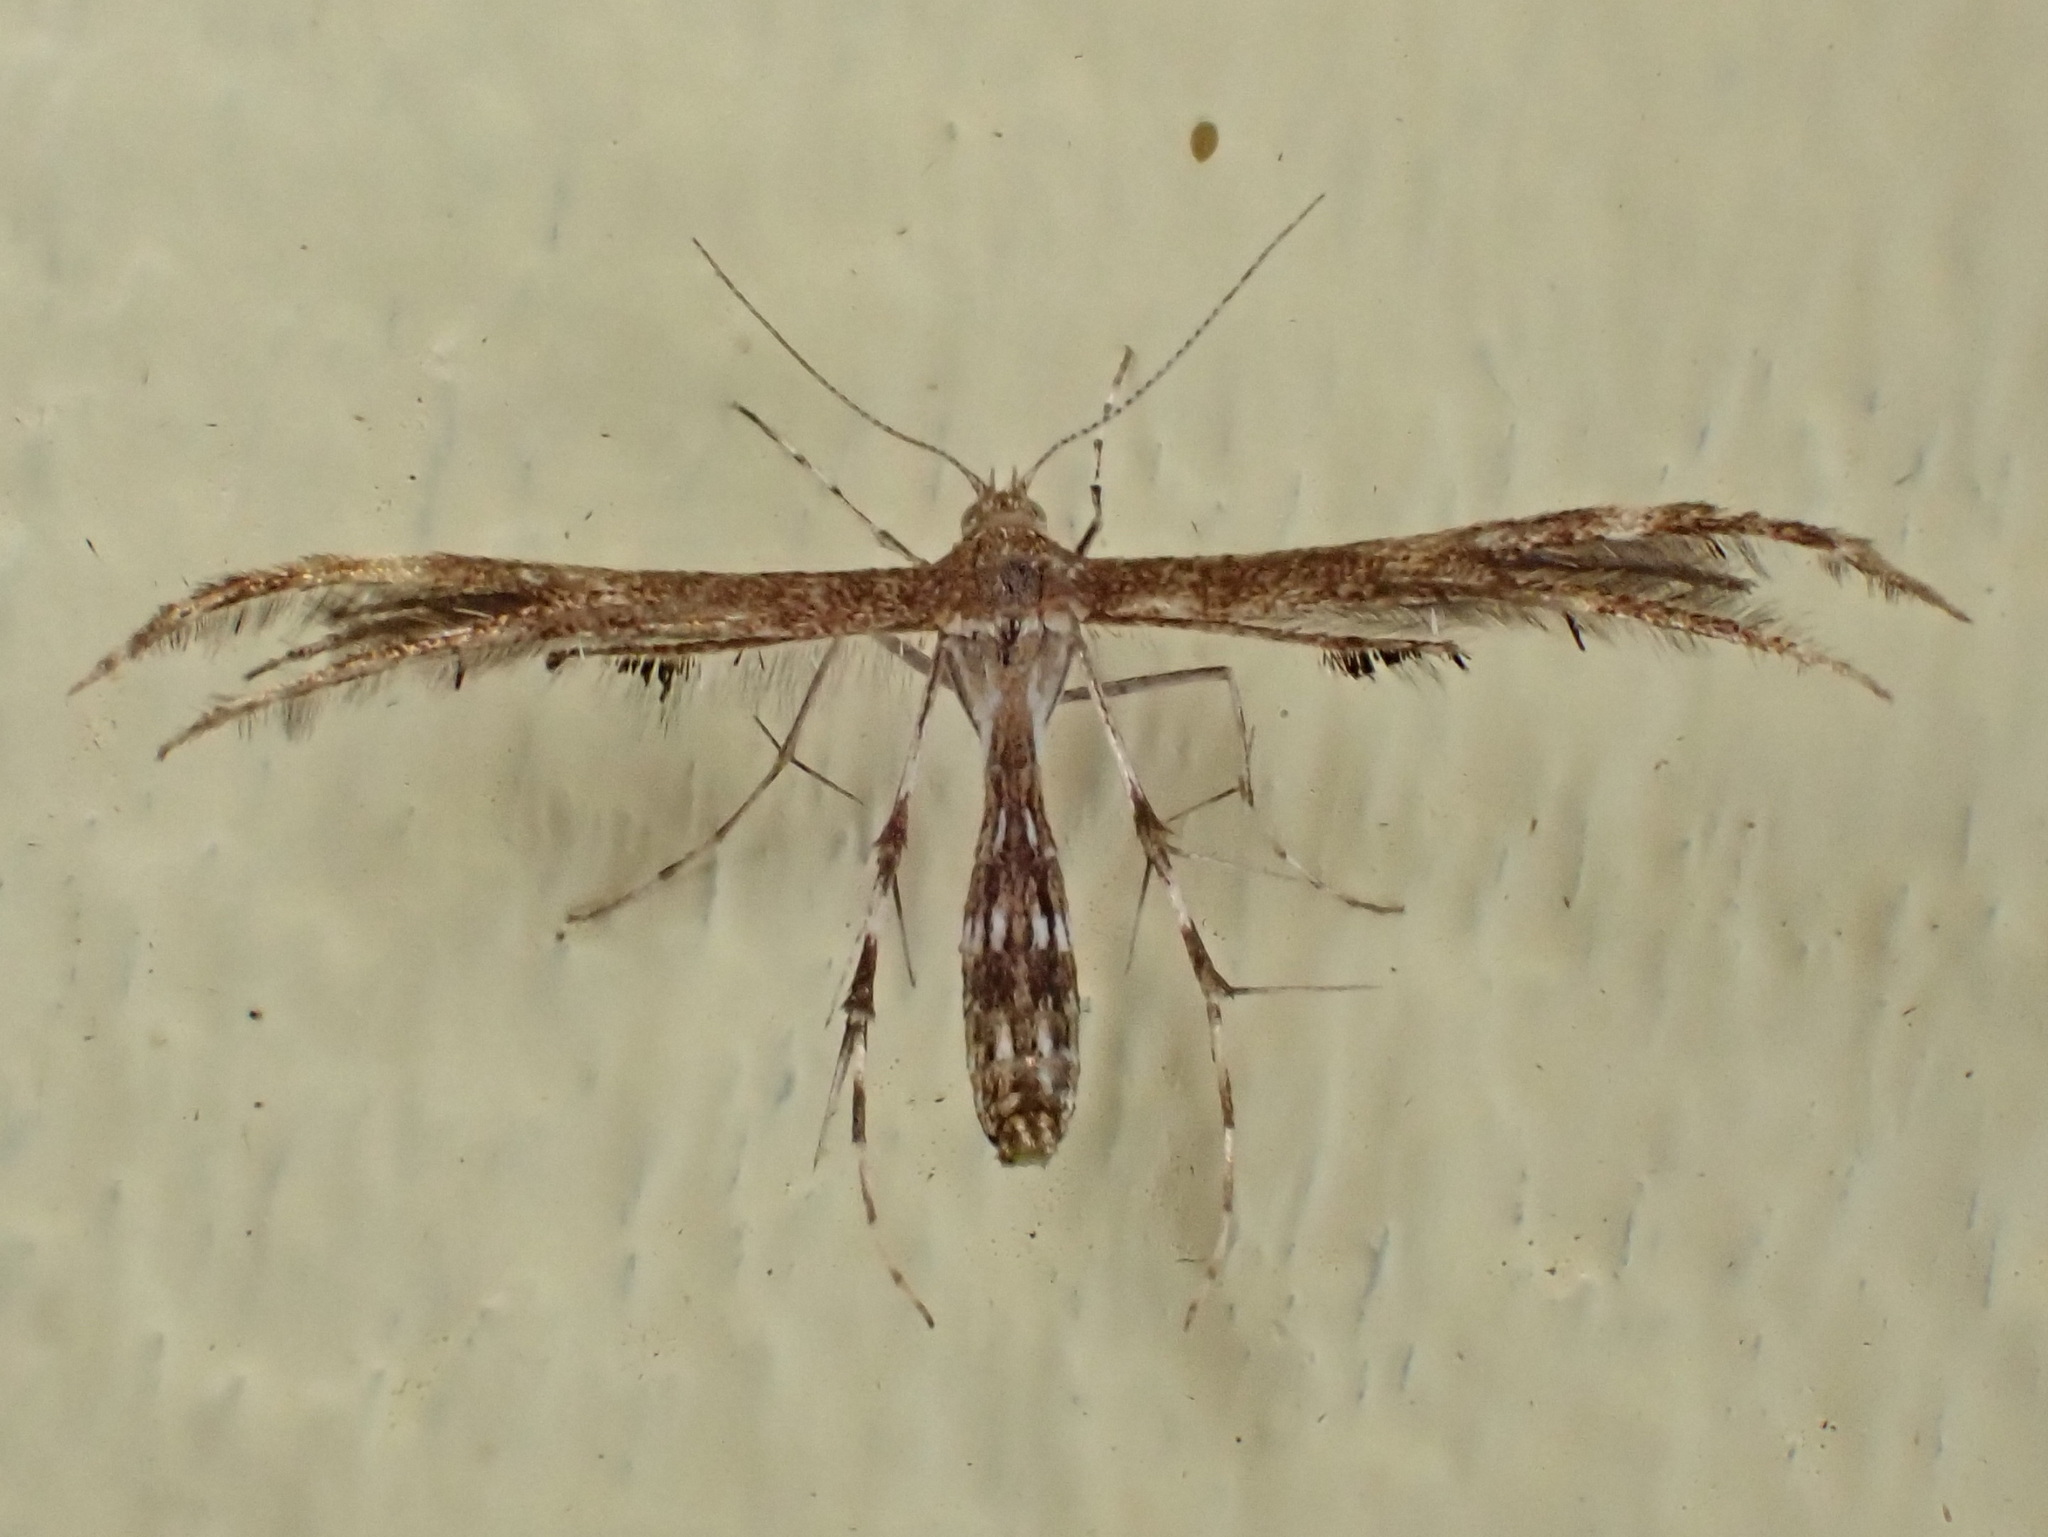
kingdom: Animalia
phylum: Arthropoda
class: Insecta
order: Lepidoptera
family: Pterophoridae
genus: Dejongia
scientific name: Dejongia lobidactylus
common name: Lobed plume moth
